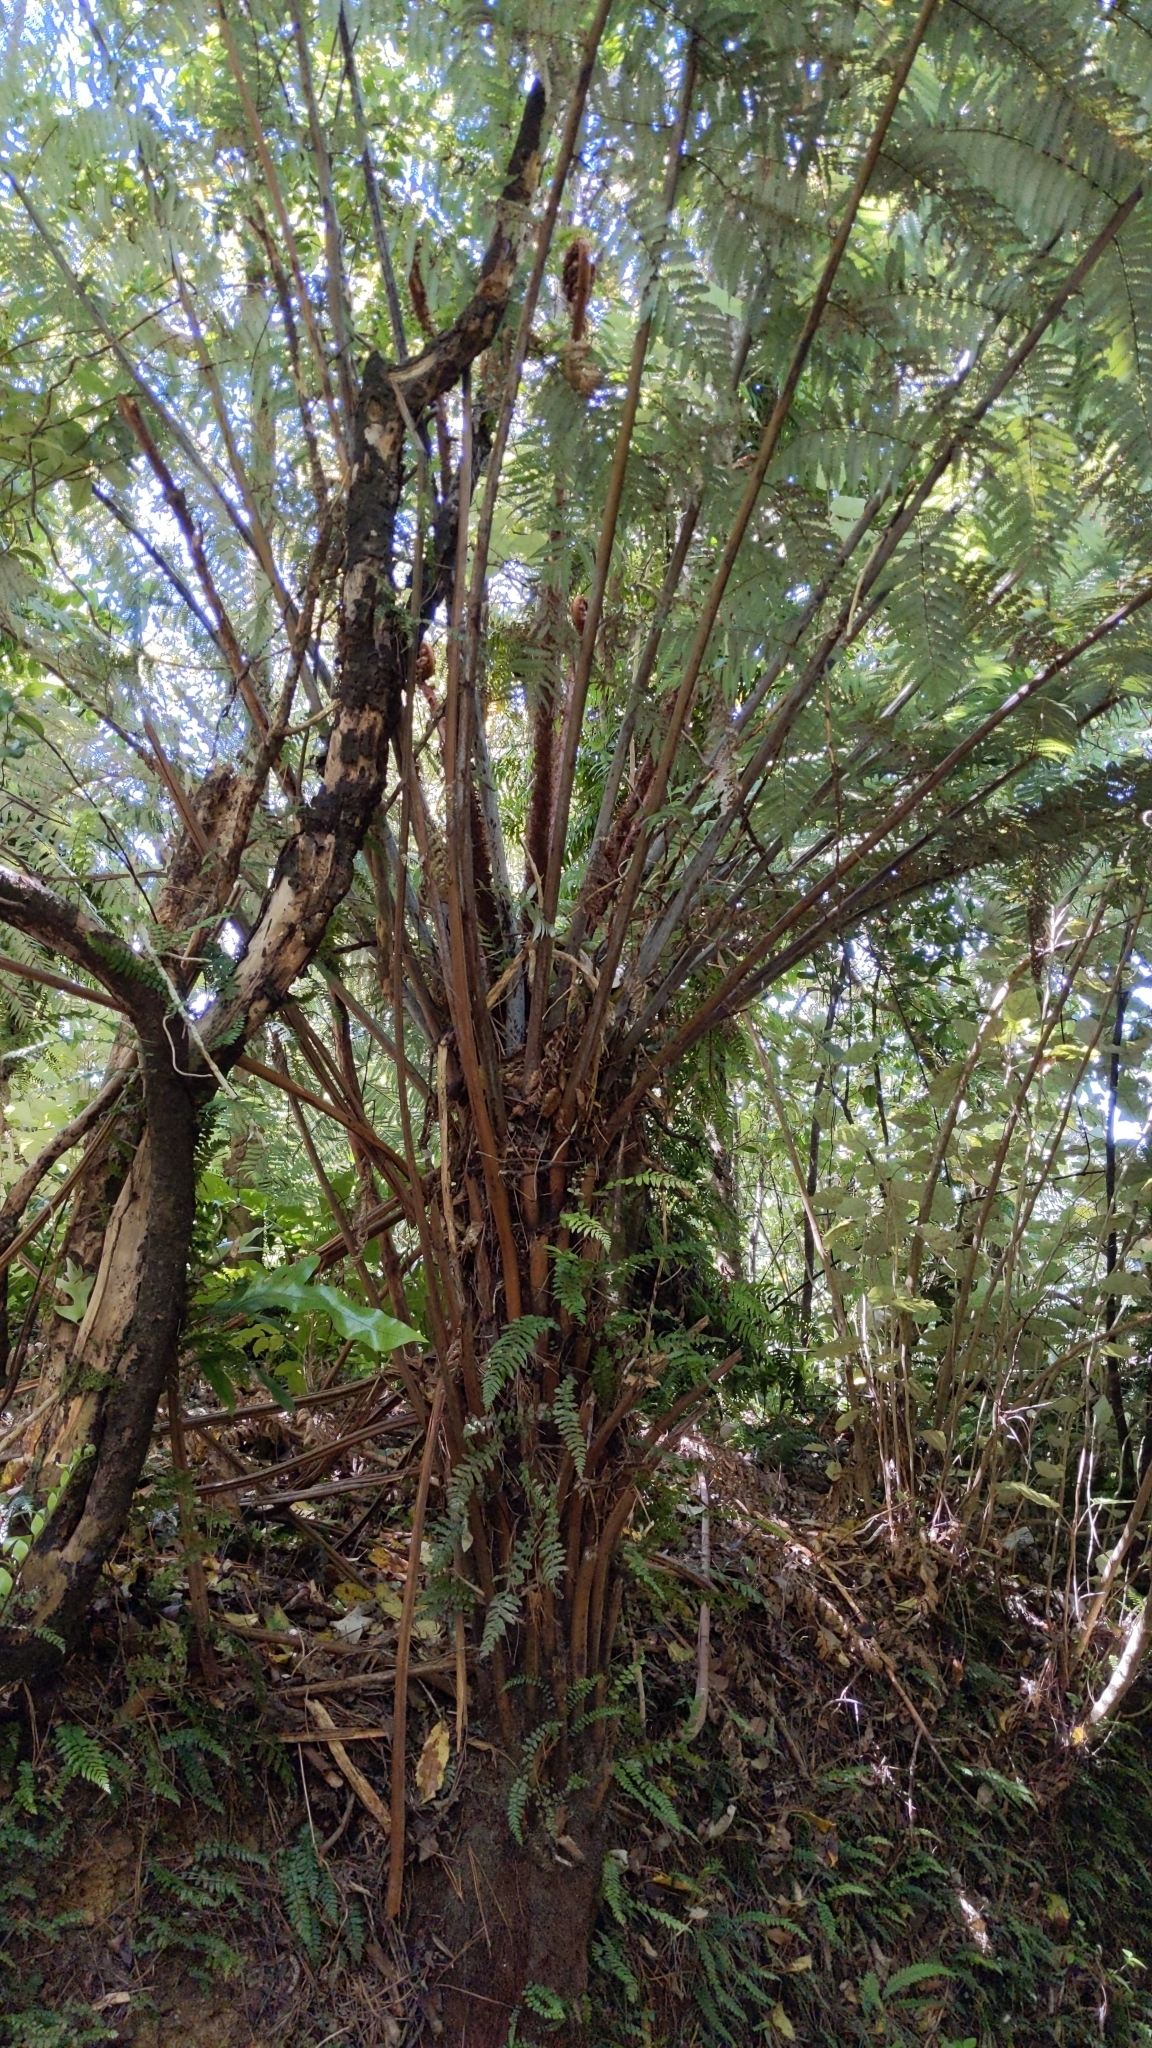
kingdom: Plantae
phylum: Tracheophyta
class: Polypodiopsida
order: Cyatheales
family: Cyatheaceae
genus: Alsophila
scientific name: Alsophila dealbata
